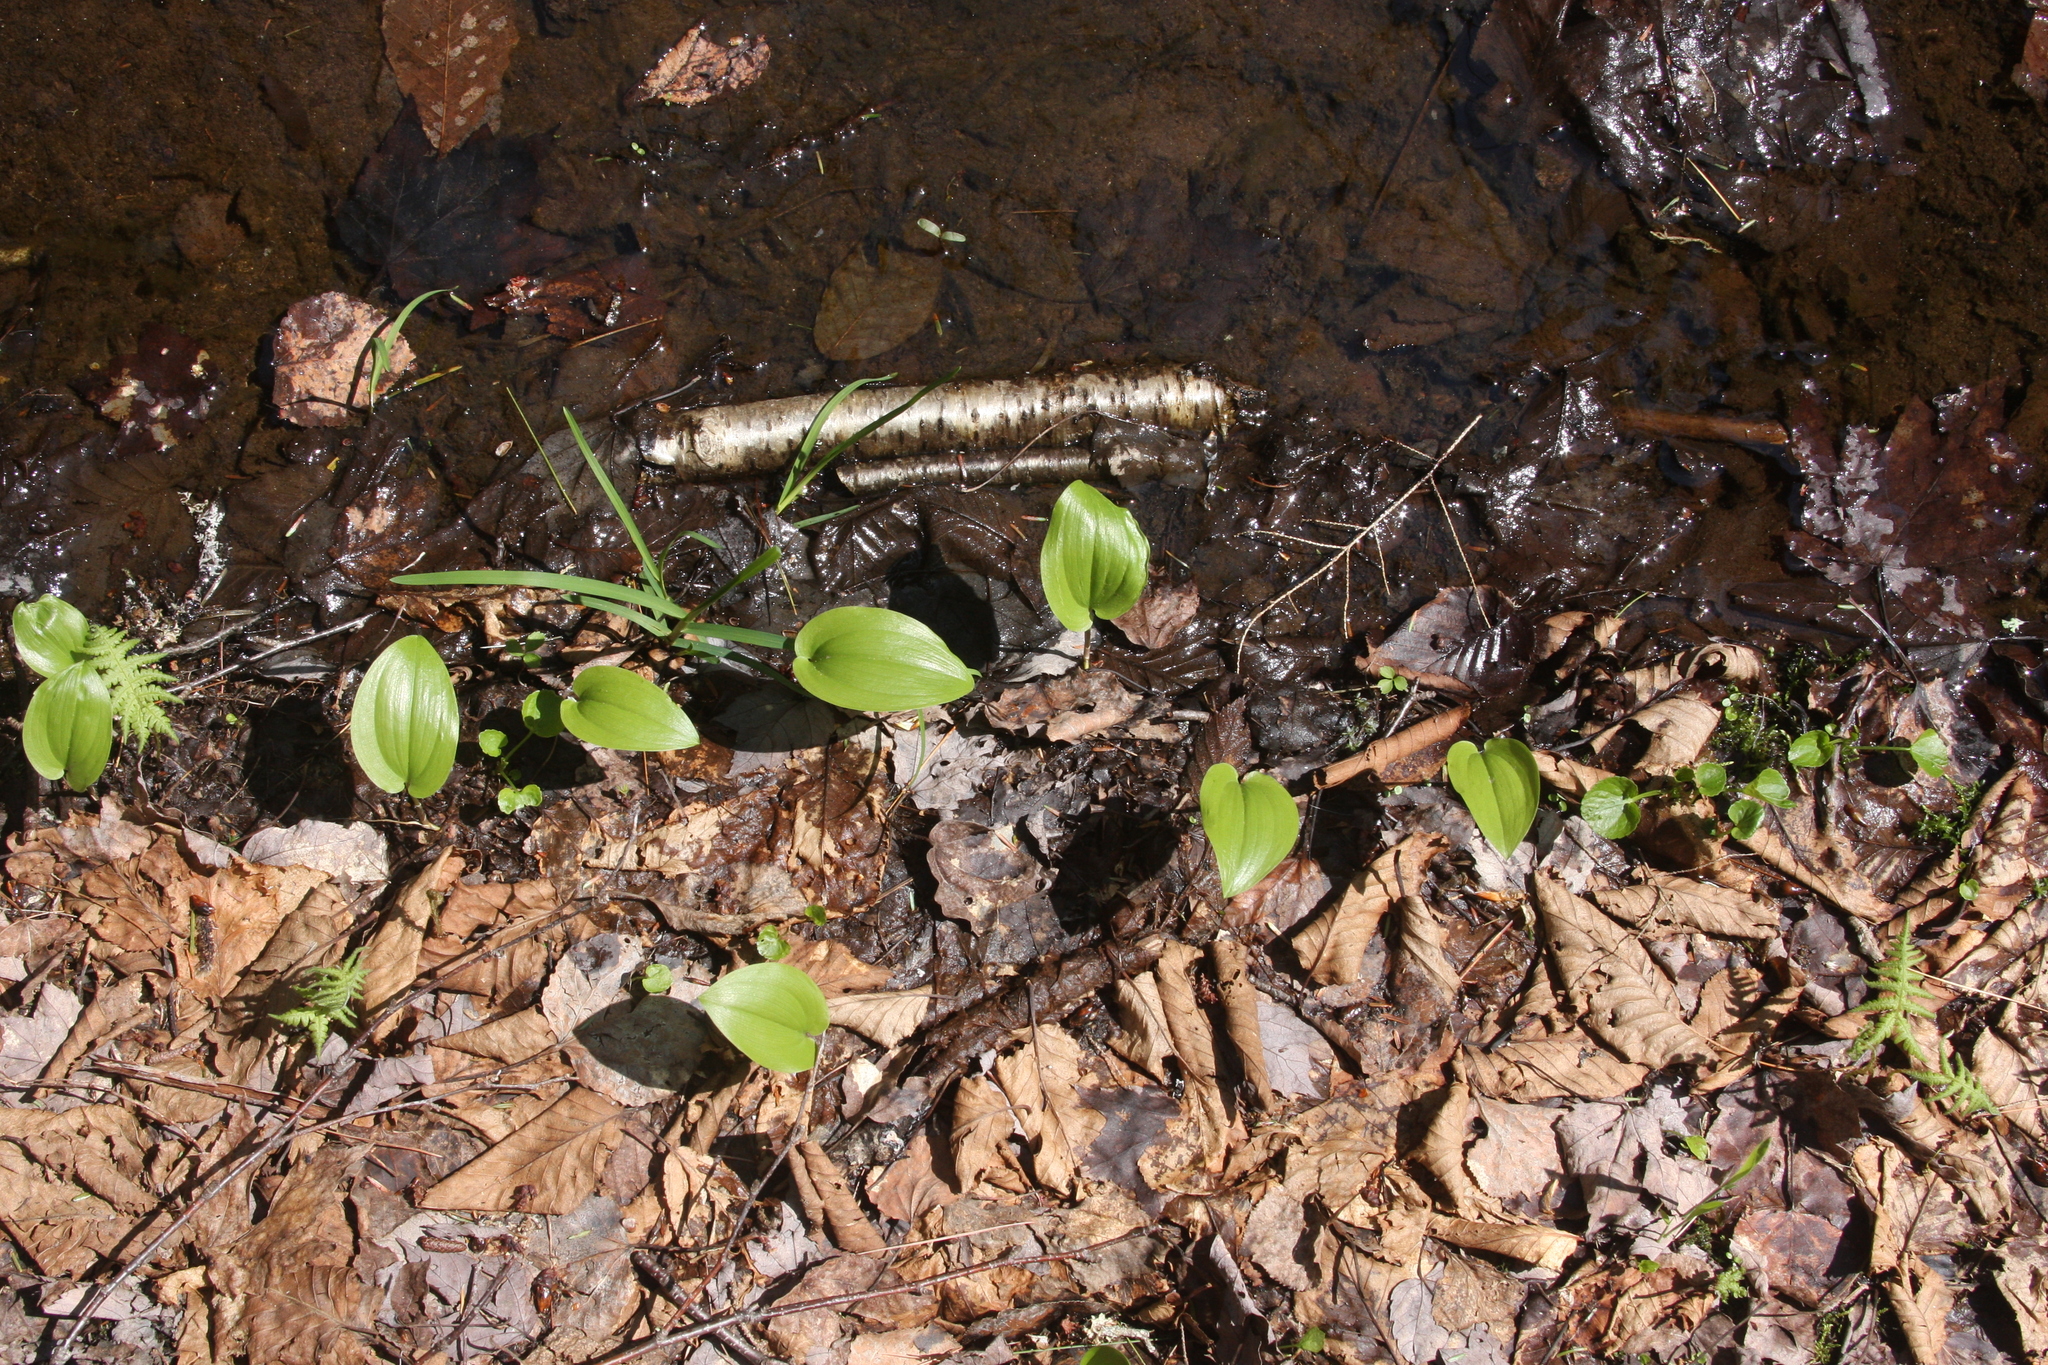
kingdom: Plantae
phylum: Tracheophyta
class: Liliopsida
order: Asparagales
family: Asparagaceae
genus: Maianthemum
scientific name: Maianthemum canadense
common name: False lily-of-the-valley
